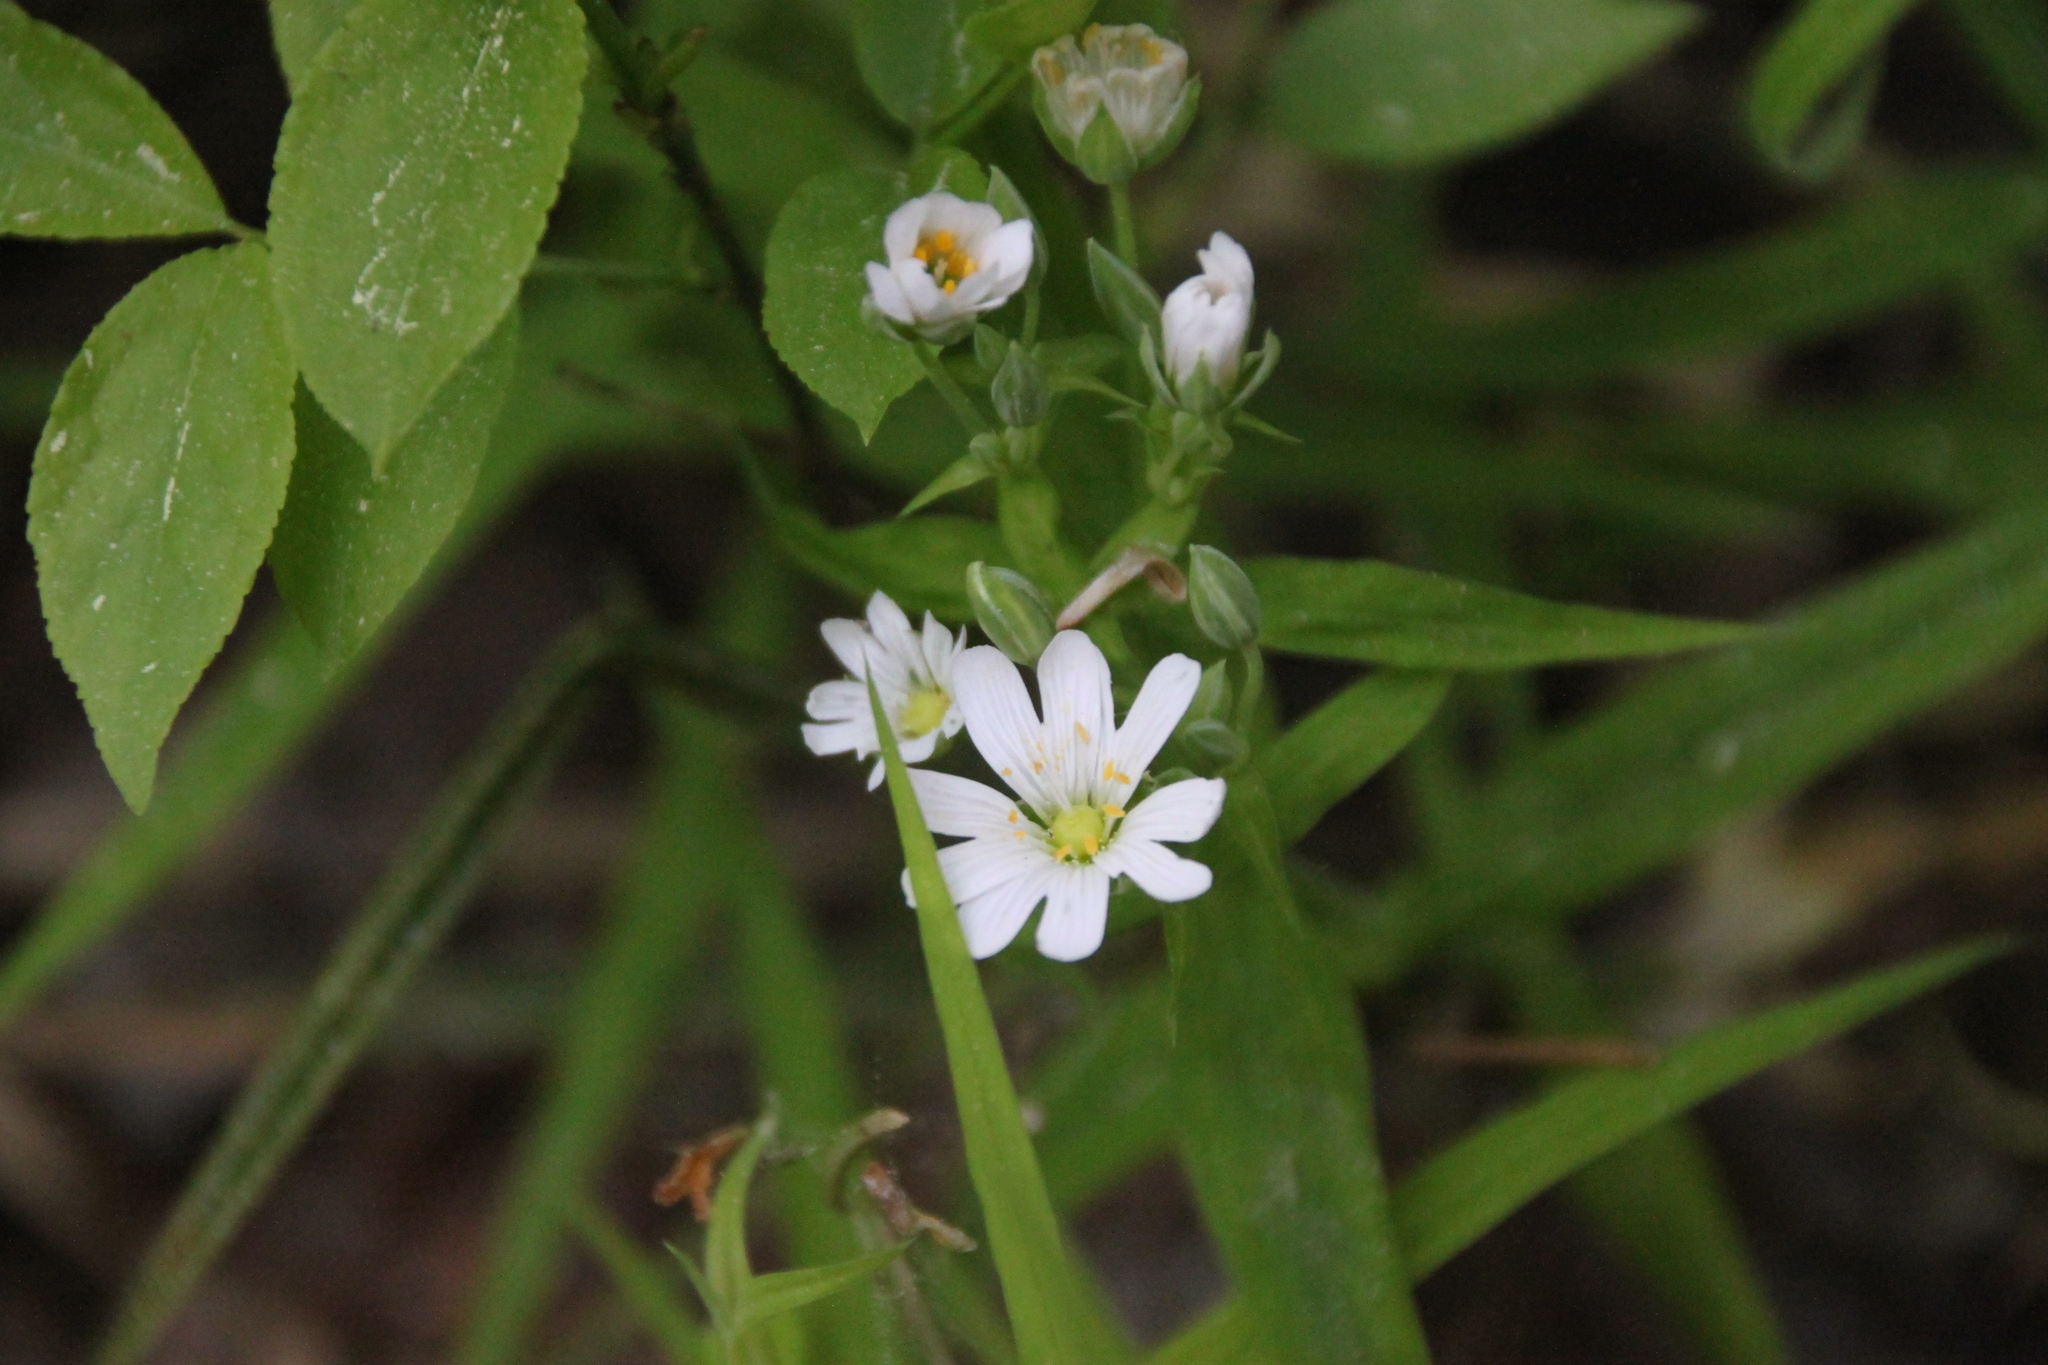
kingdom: Plantae
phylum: Tracheophyta
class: Magnoliopsida
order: Caryophyllales
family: Caryophyllaceae
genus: Rabelera
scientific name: Rabelera holostea
